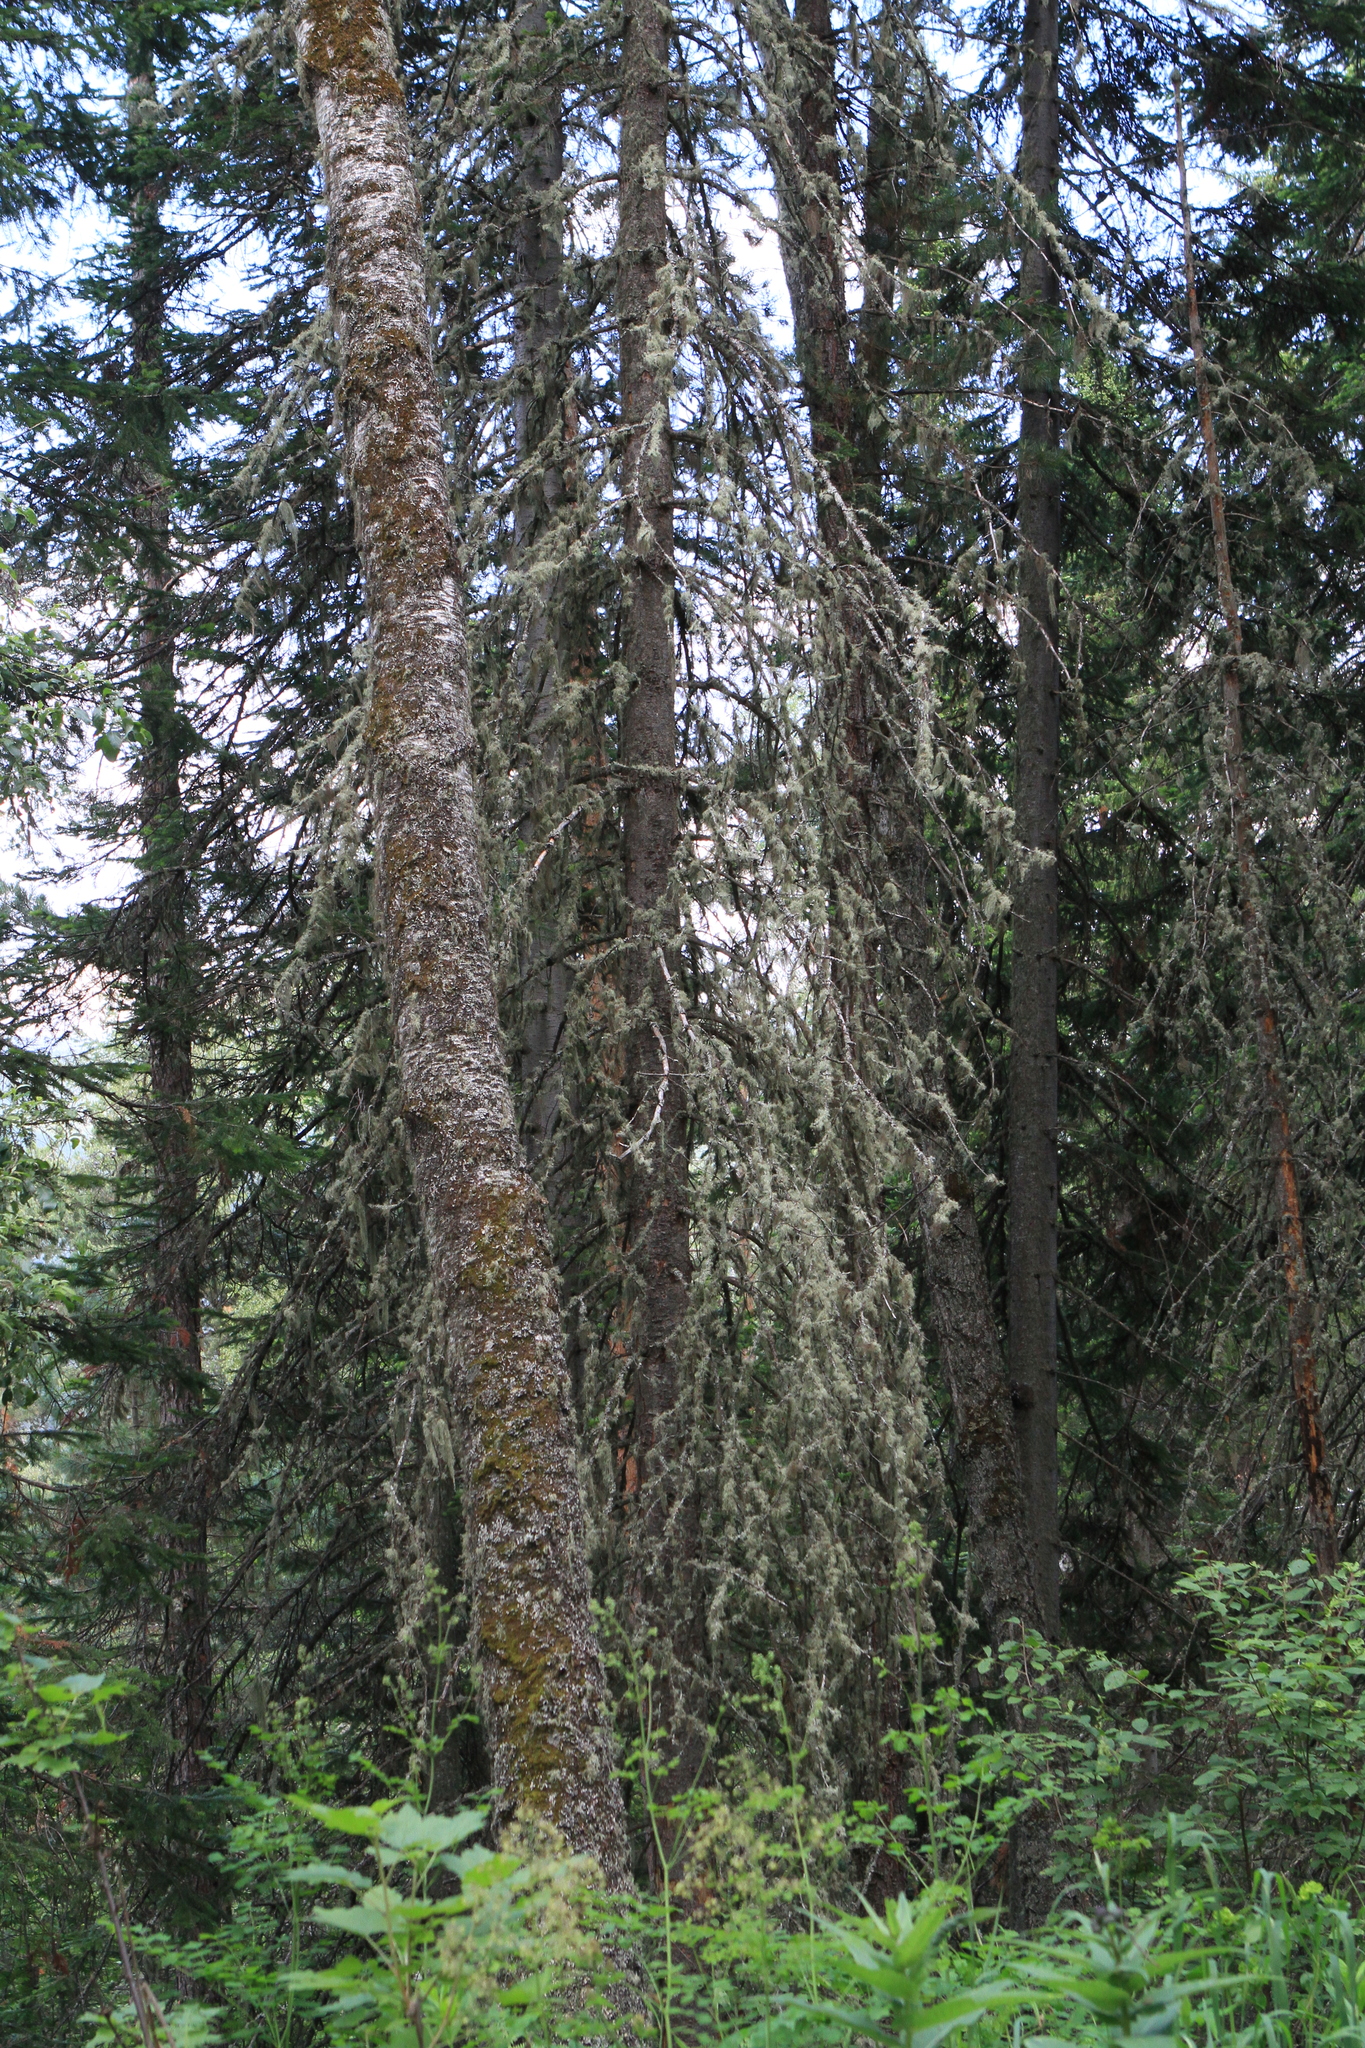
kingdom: Plantae
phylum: Tracheophyta
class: Pinopsida
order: Pinales
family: Pinaceae
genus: Picea
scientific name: Picea obovata
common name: Siberian spruce
